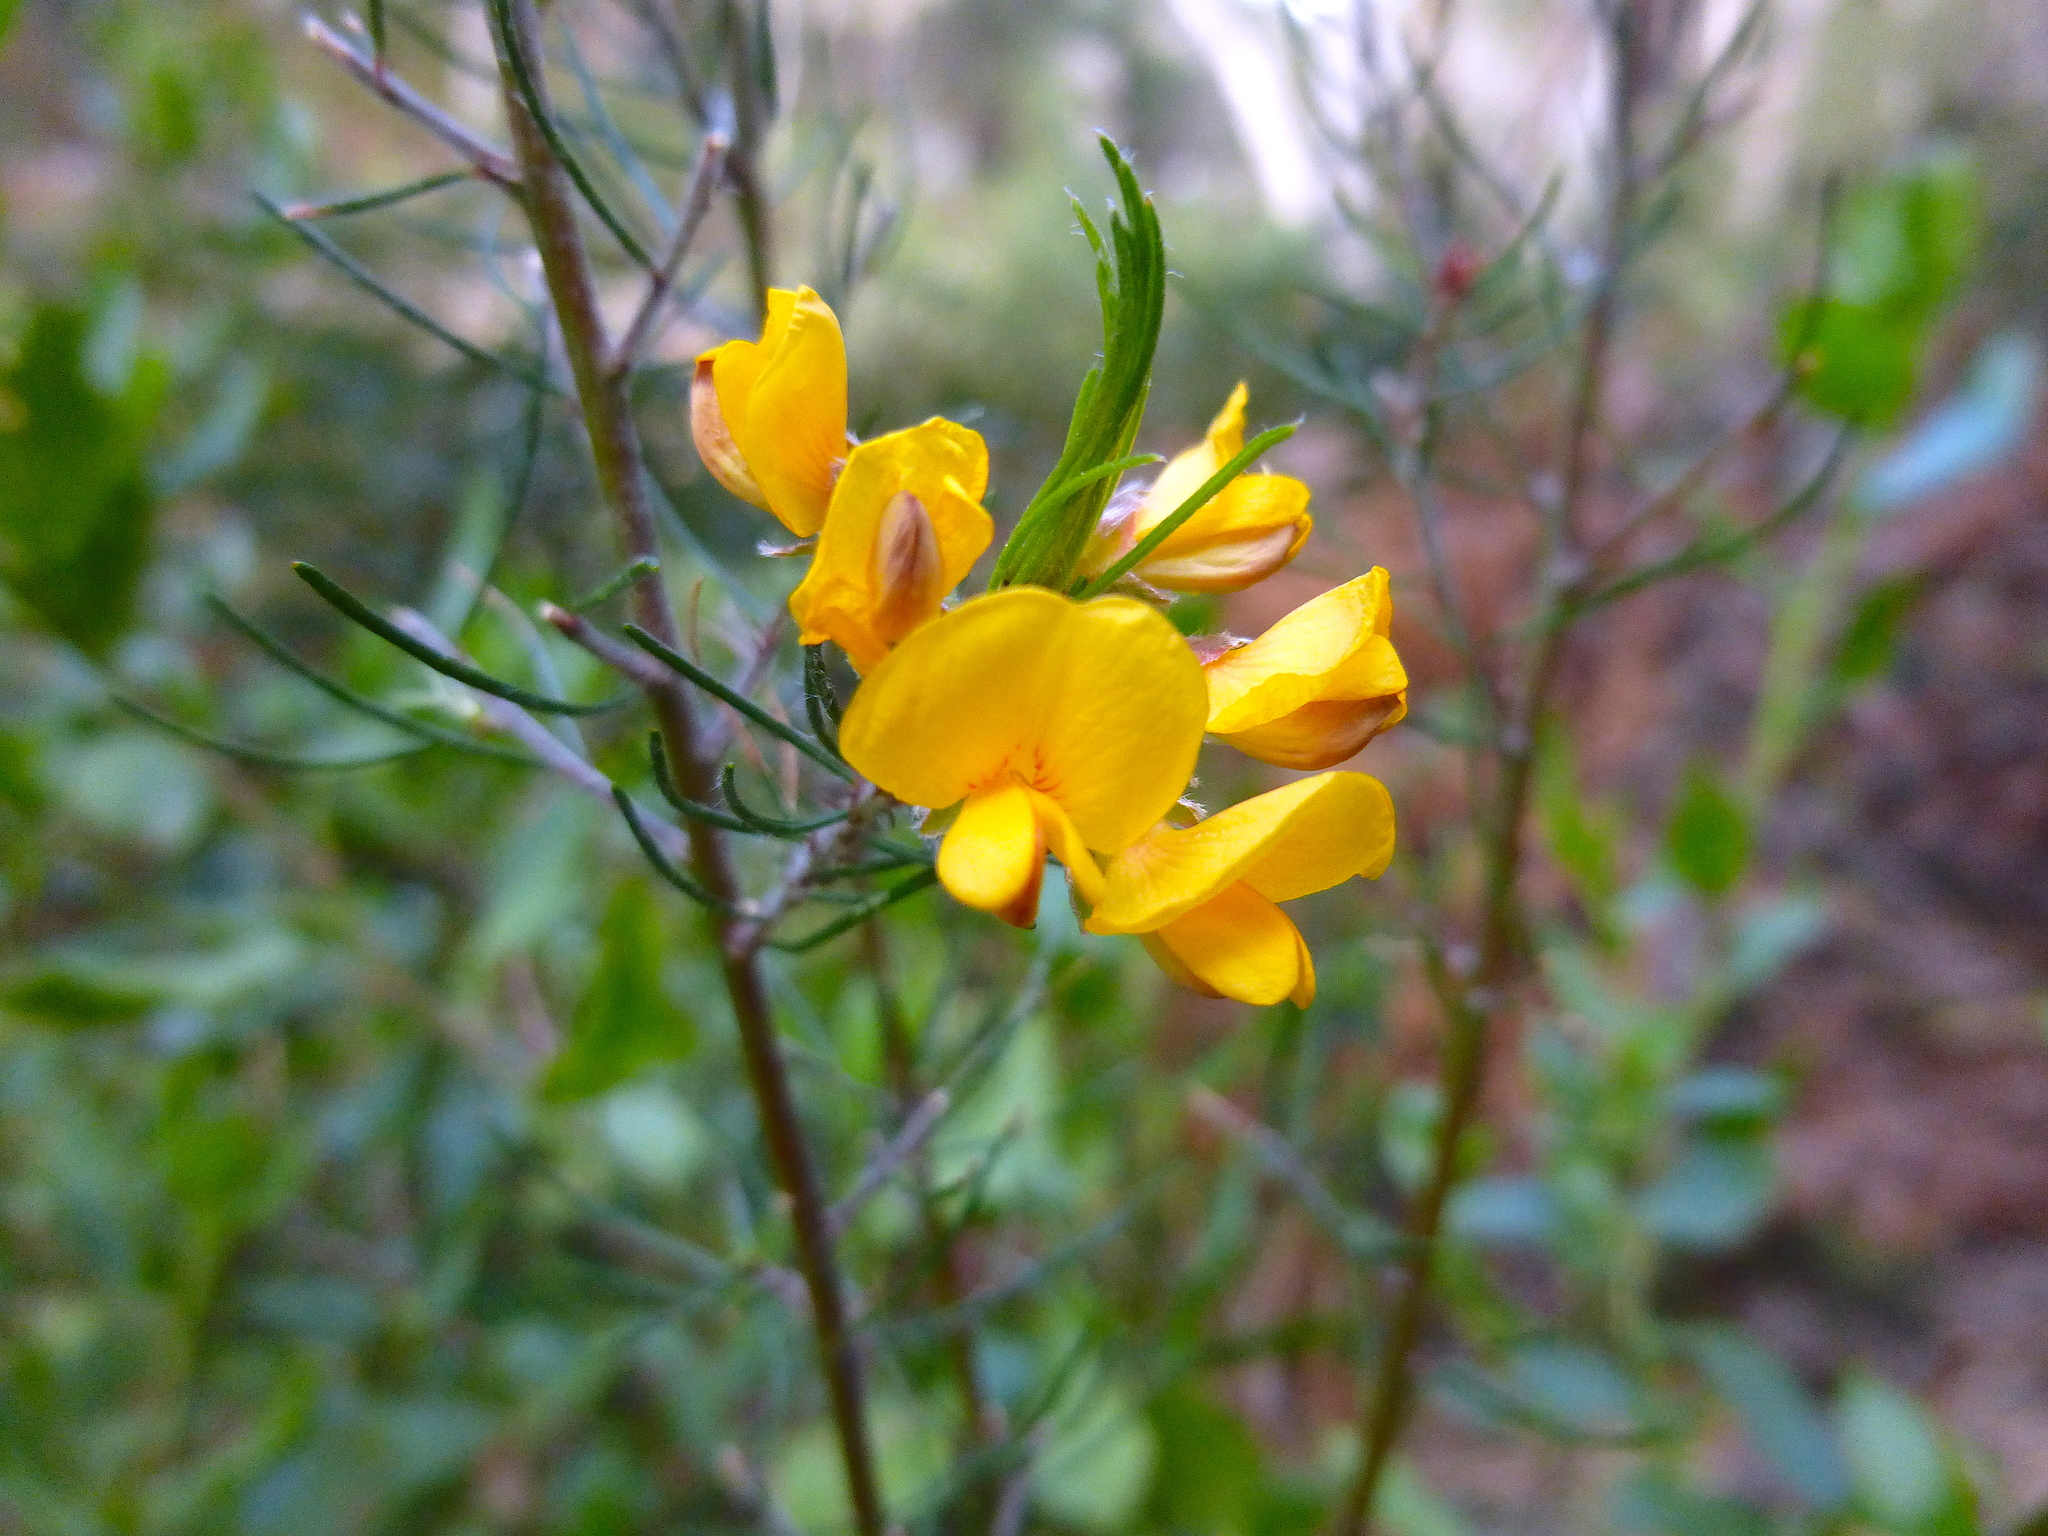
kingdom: Plantae
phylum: Tracheophyta
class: Magnoliopsida
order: Fabales
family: Fabaceae
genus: Pultenaea
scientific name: Pultenaea mollis
